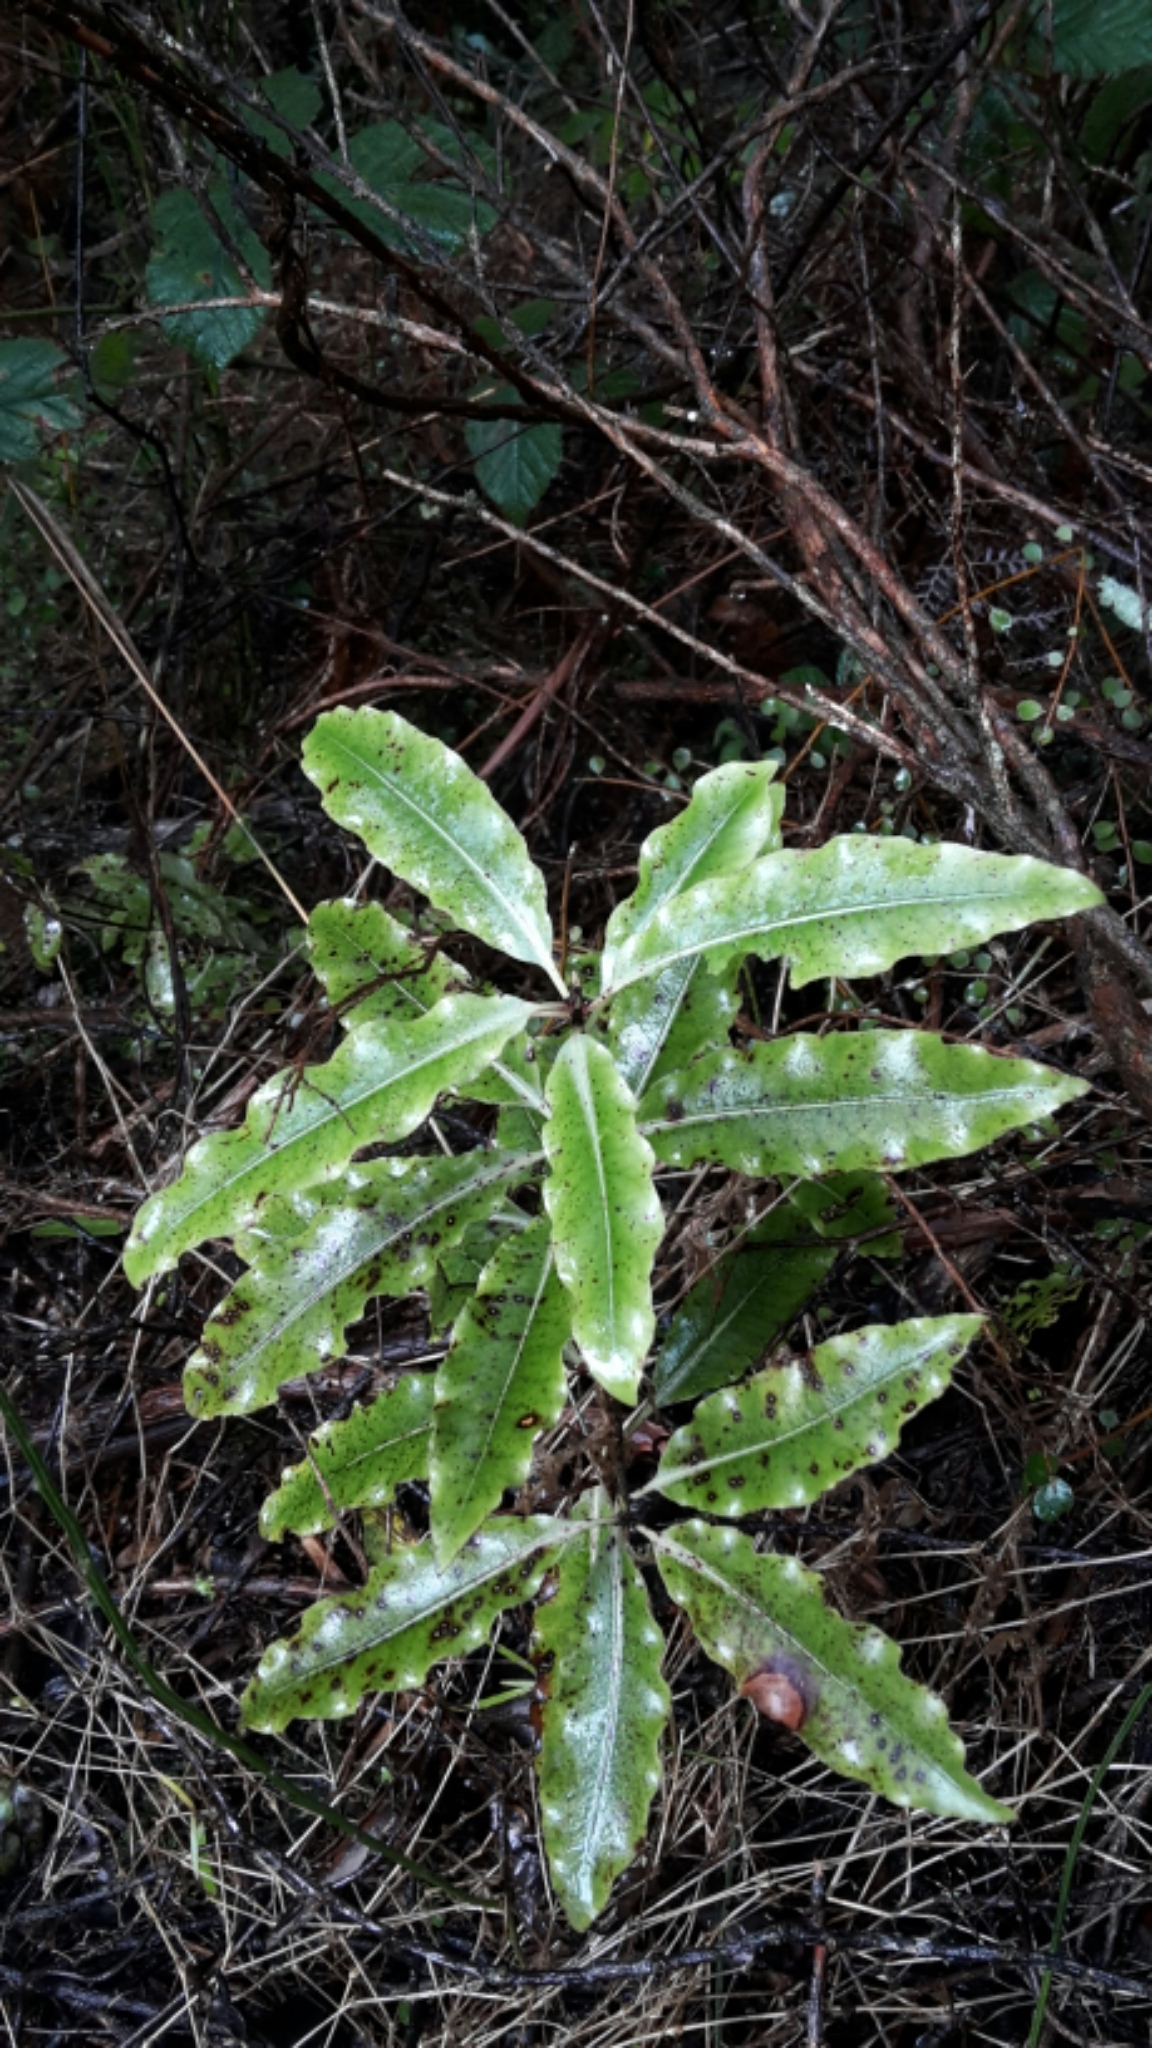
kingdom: Plantae
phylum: Tracheophyta
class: Magnoliopsida
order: Apiales
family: Pittosporaceae
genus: Pittosporum
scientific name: Pittosporum eugenioides
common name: Lemonwood
